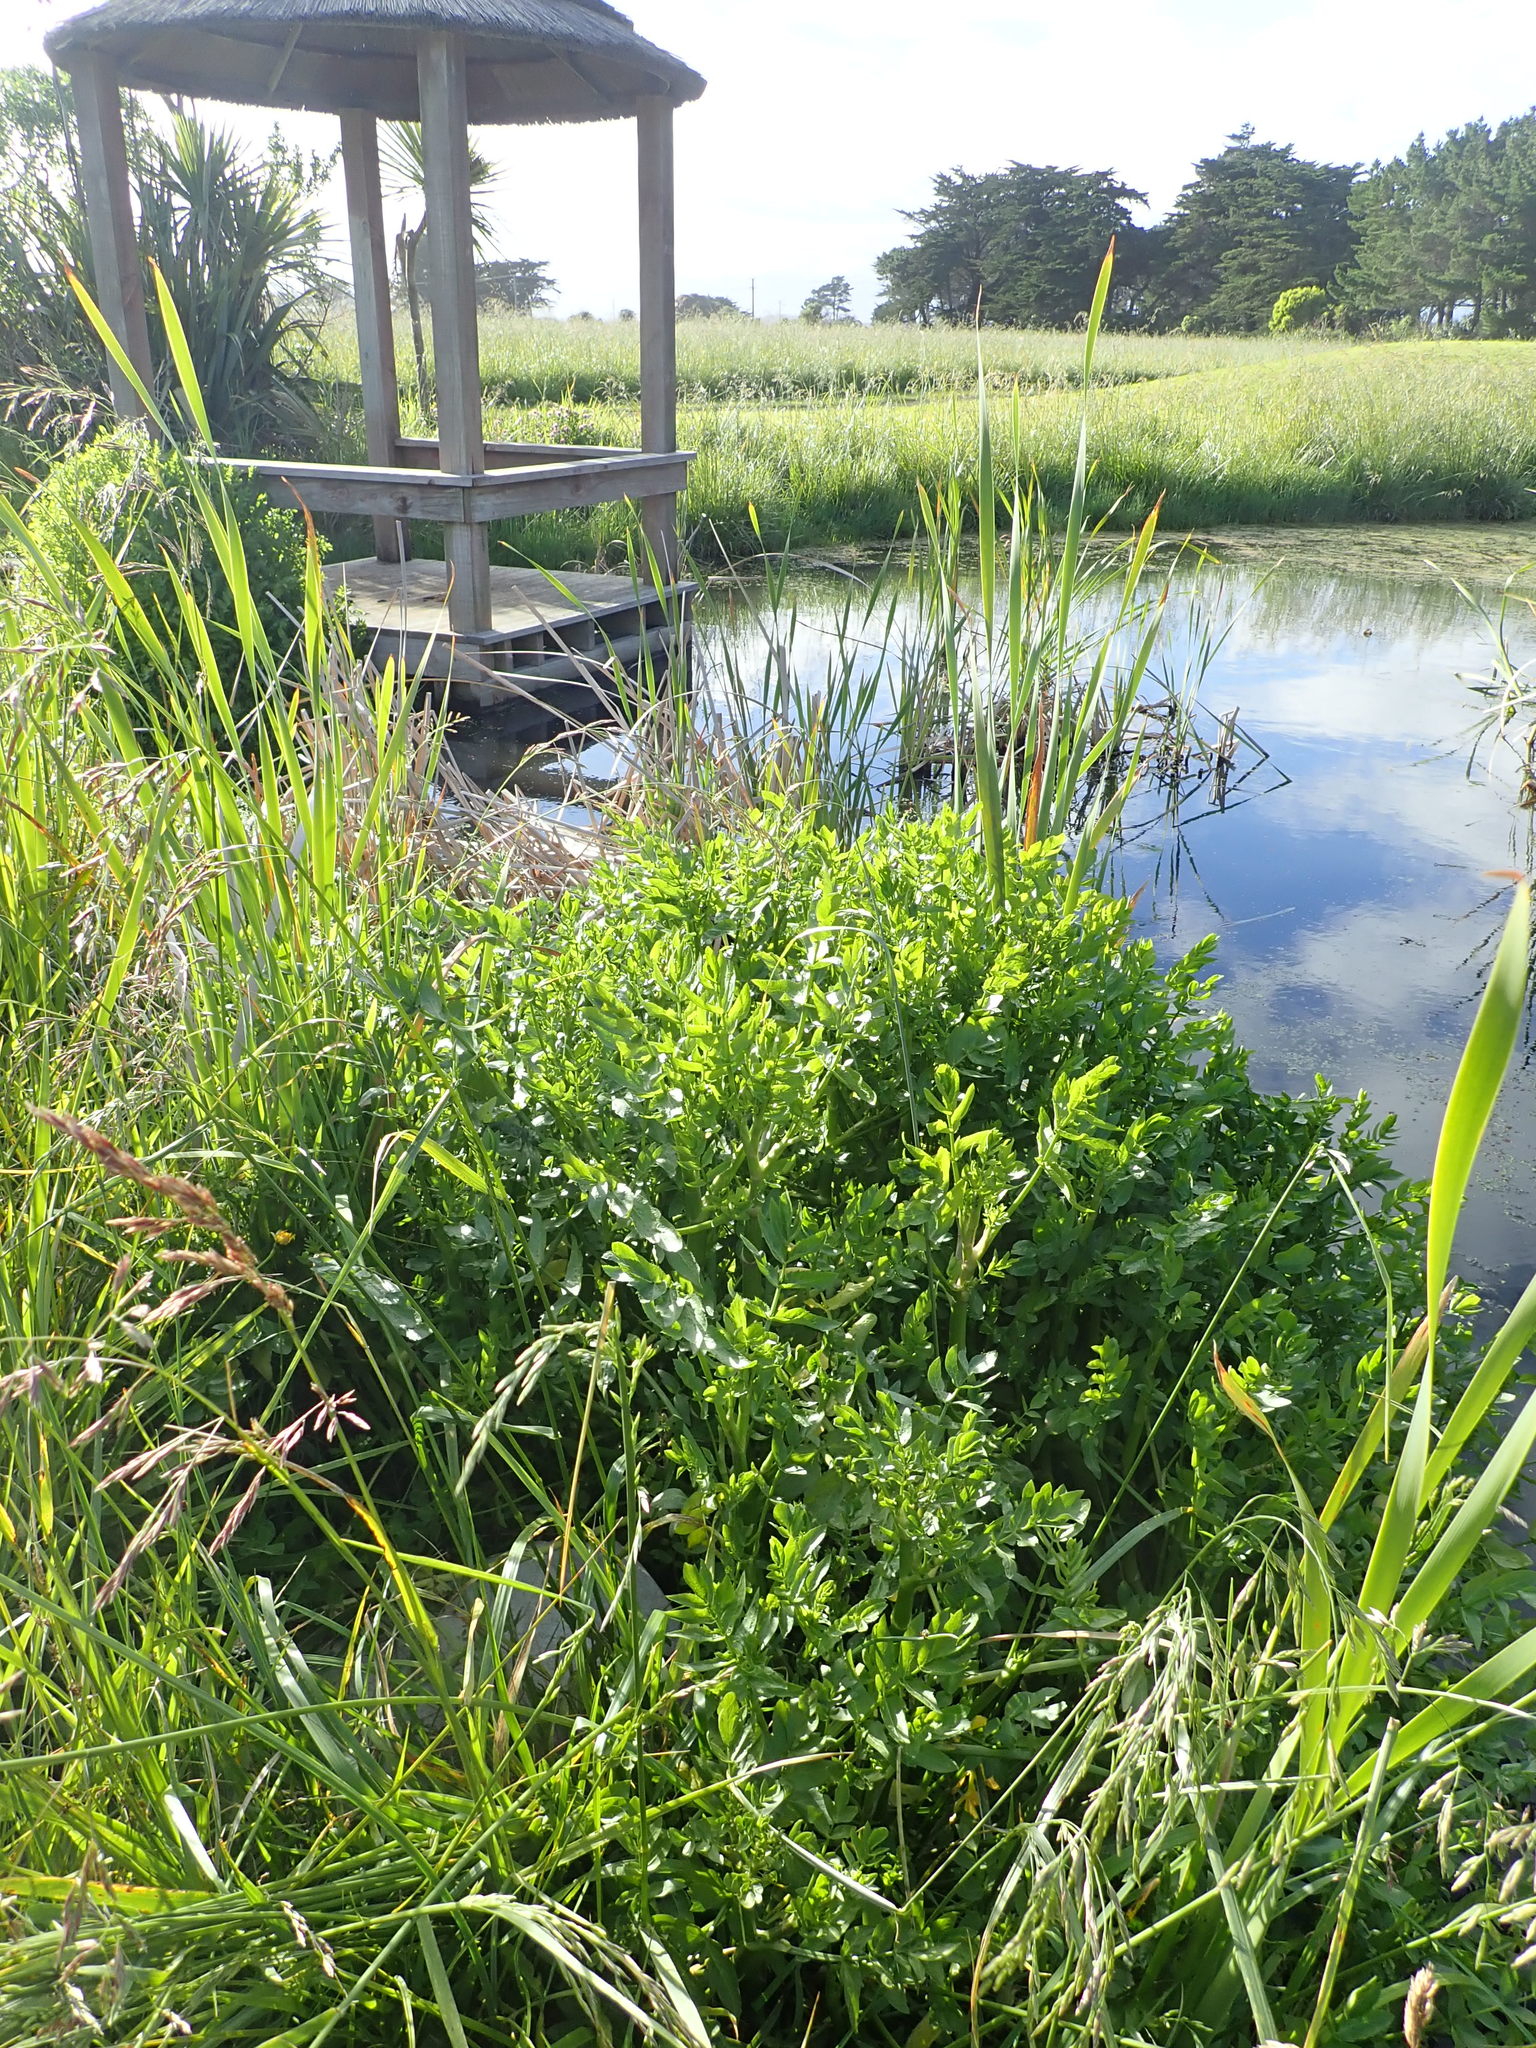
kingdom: Plantae
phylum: Tracheophyta
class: Magnoliopsida
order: Apiales
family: Apiaceae
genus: Helosciadium
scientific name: Helosciadium nodiflorum
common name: Fool's-watercress
